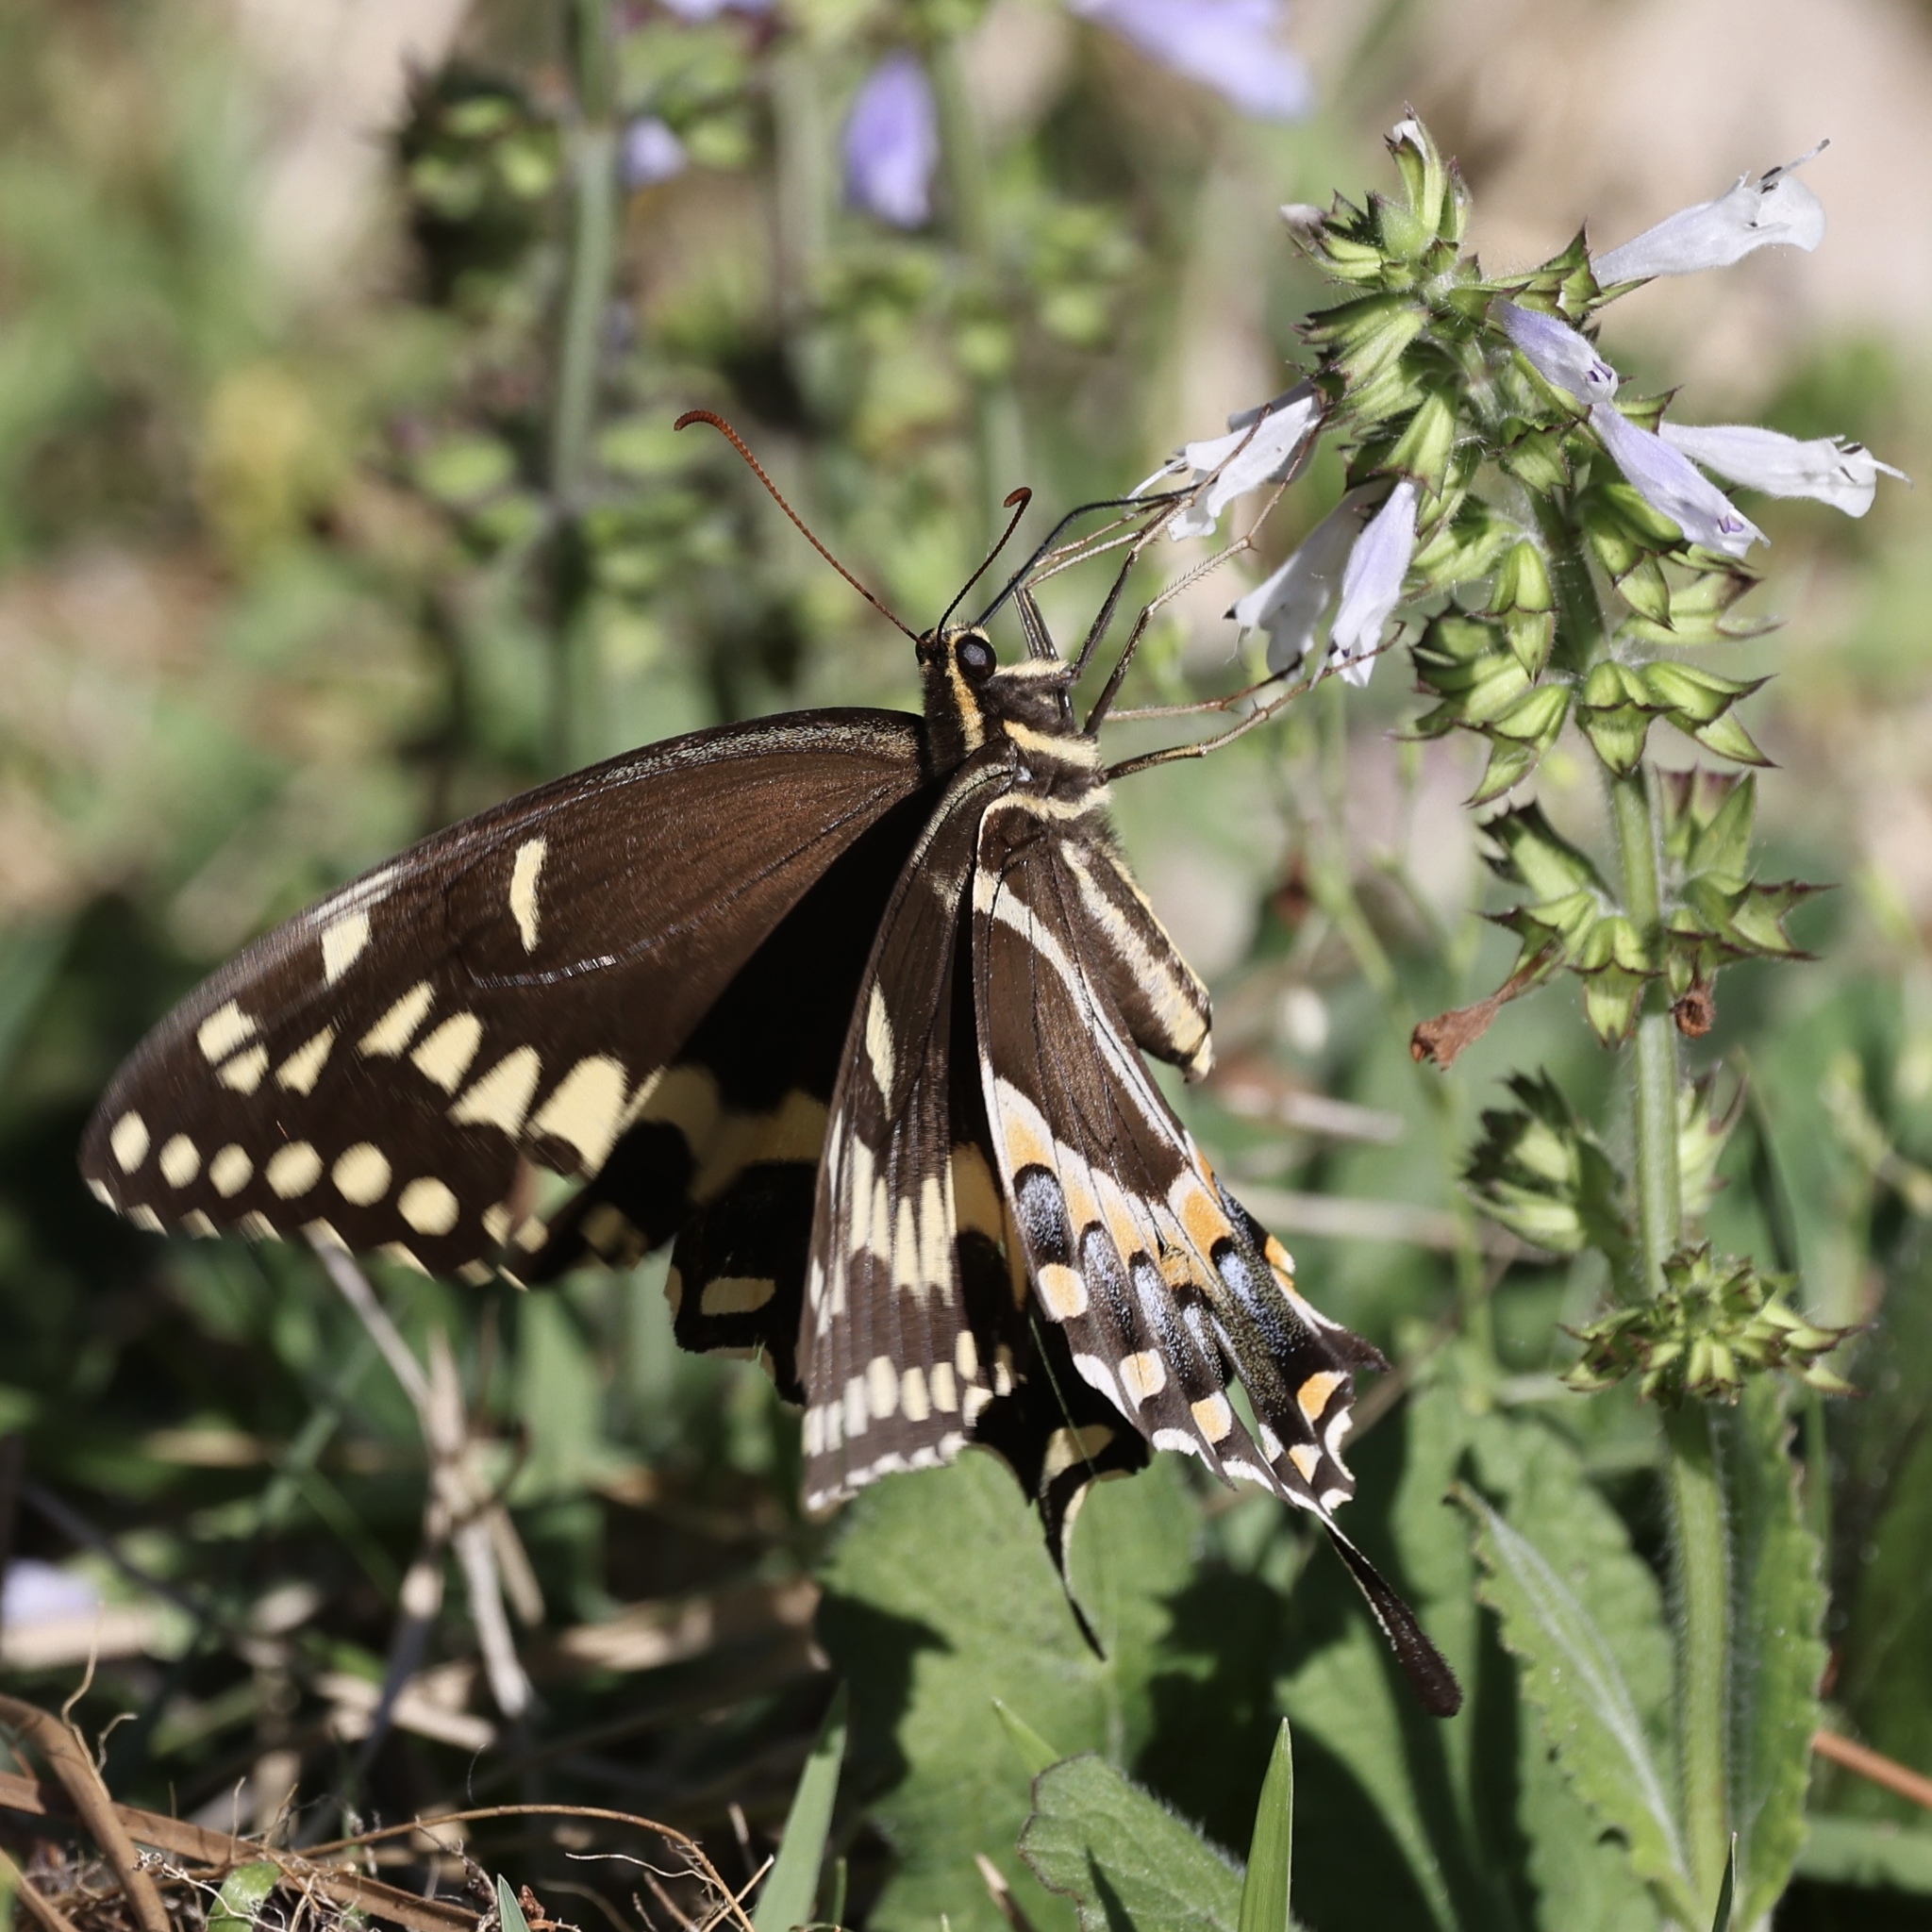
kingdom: Animalia
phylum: Arthropoda
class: Insecta
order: Lepidoptera
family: Papilionidae
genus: Papilio
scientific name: Papilio palamedes
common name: Palamedes swallowtail
